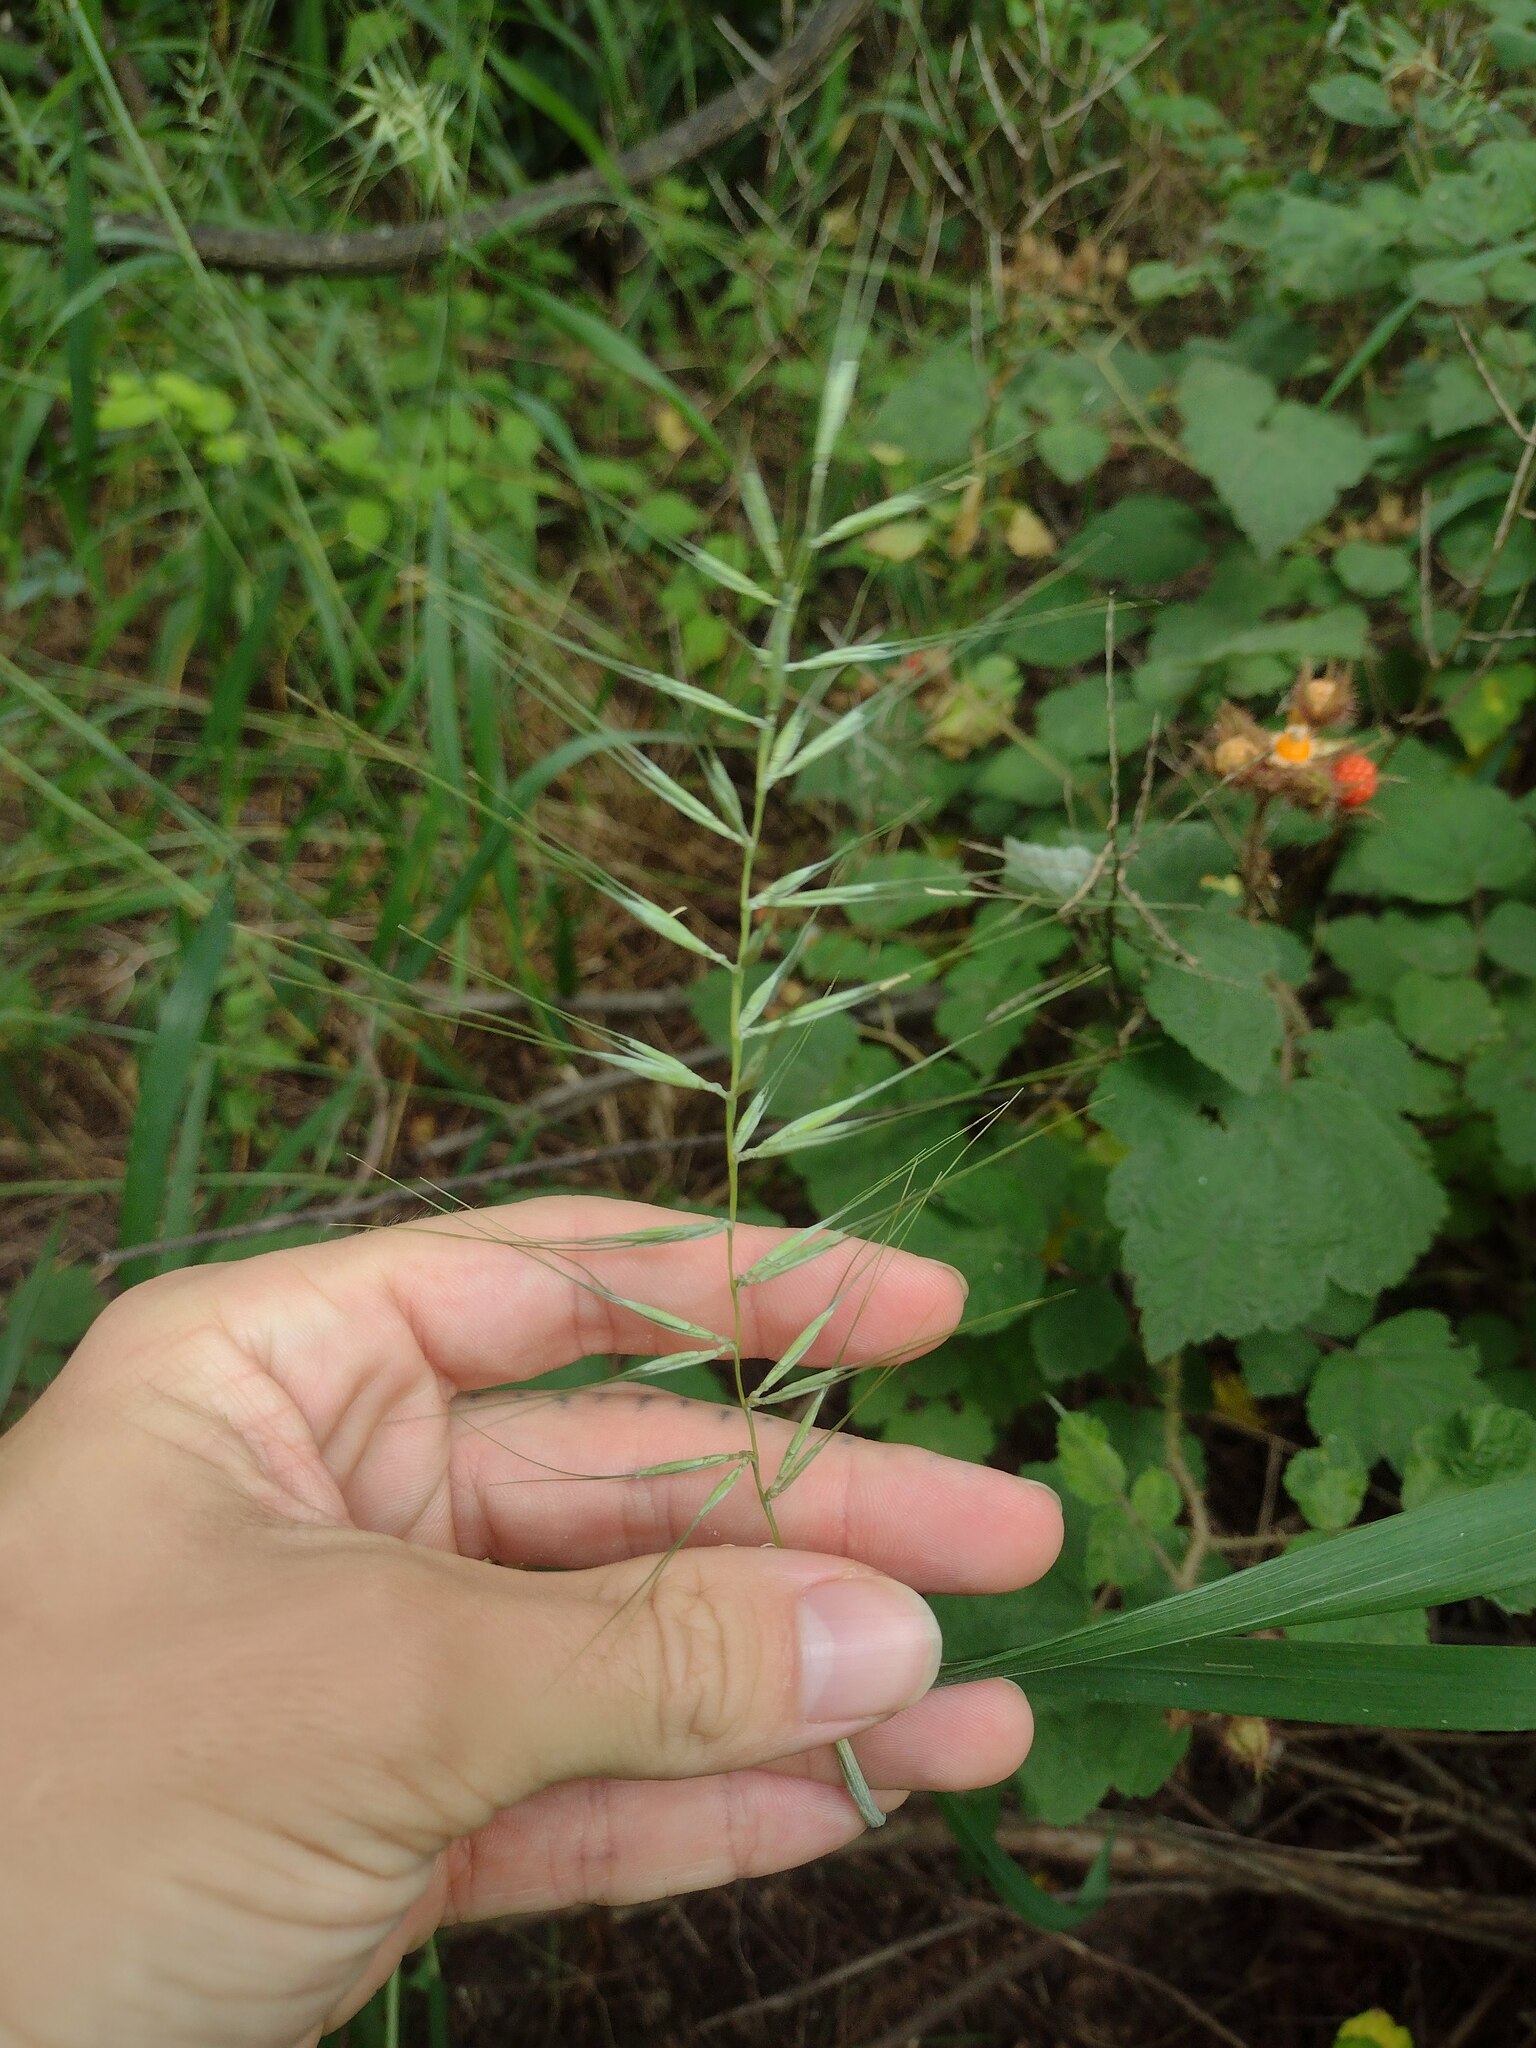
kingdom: Plantae
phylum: Tracheophyta
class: Liliopsida
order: Poales
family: Poaceae
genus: Elymus
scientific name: Elymus hystrix
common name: Bottlebrush grass
